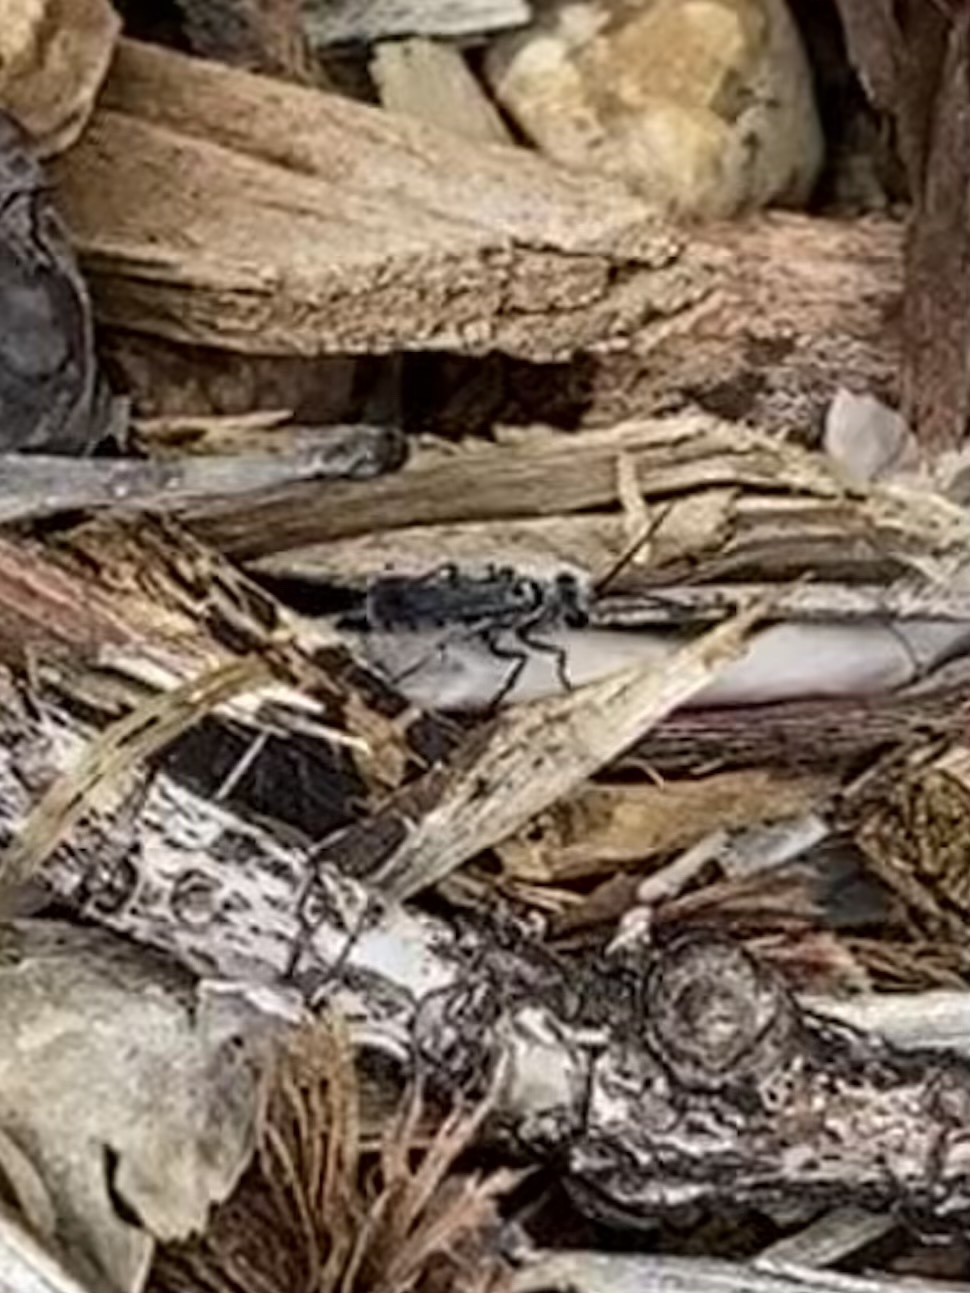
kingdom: Animalia
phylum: Arthropoda
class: Insecta
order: Hymenoptera
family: Pompilidae
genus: Aporinellus
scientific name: Aporinellus
